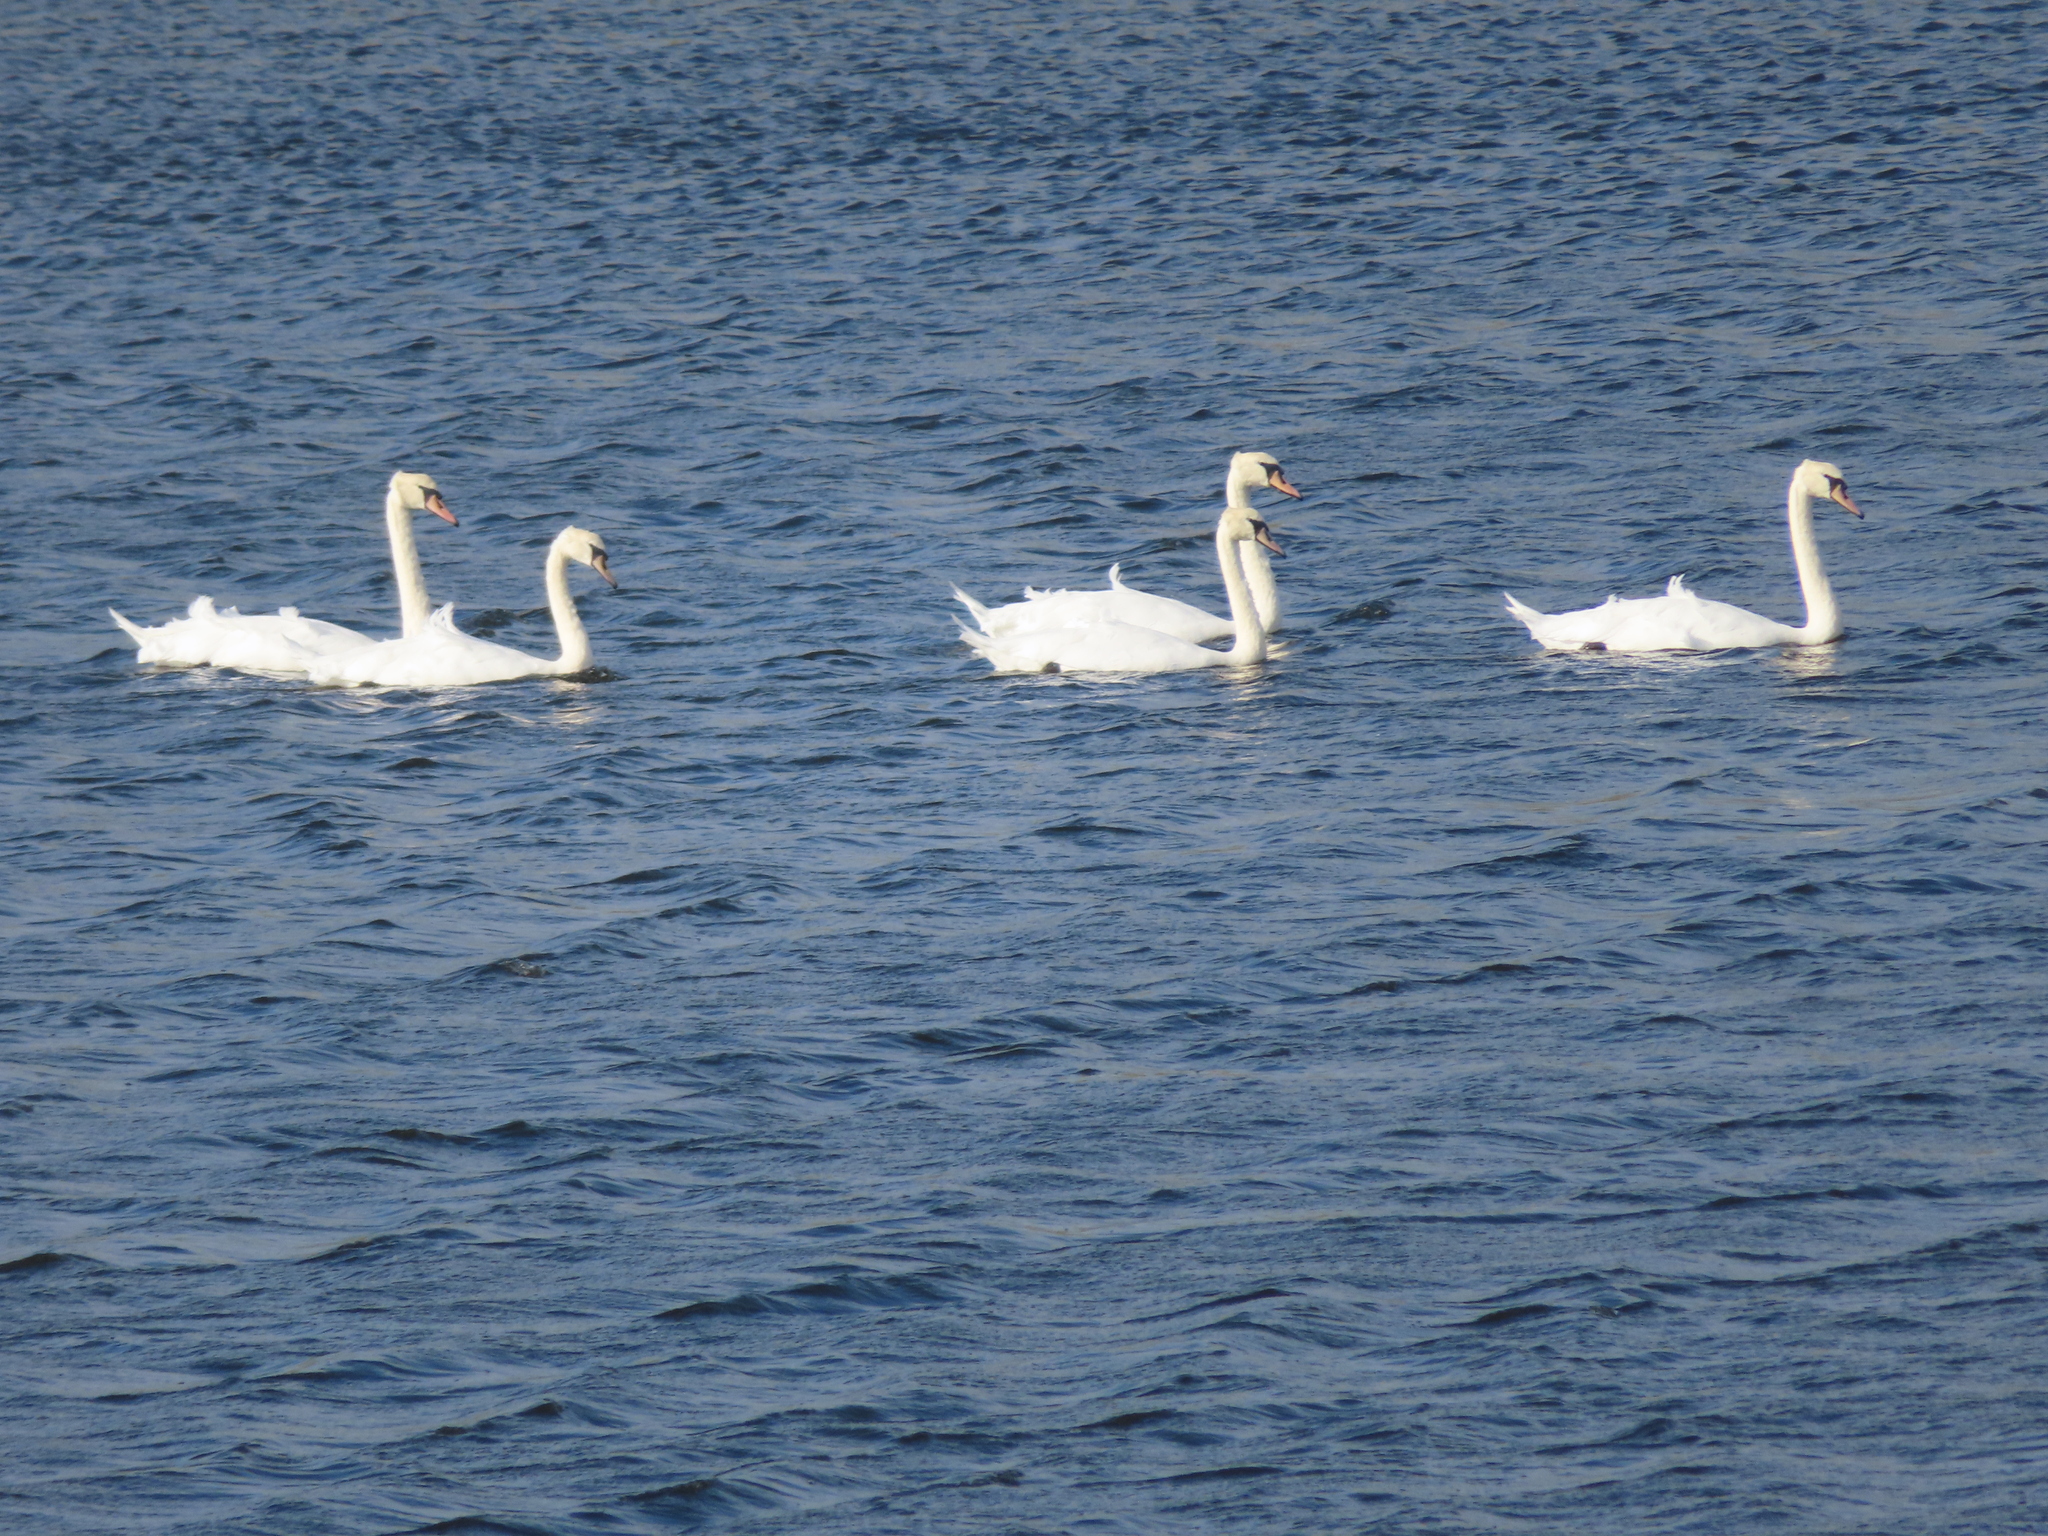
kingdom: Animalia
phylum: Chordata
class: Aves
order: Anseriformes
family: Anatidae
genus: Cygnus
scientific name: Cygnus olor
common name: Mute swan
